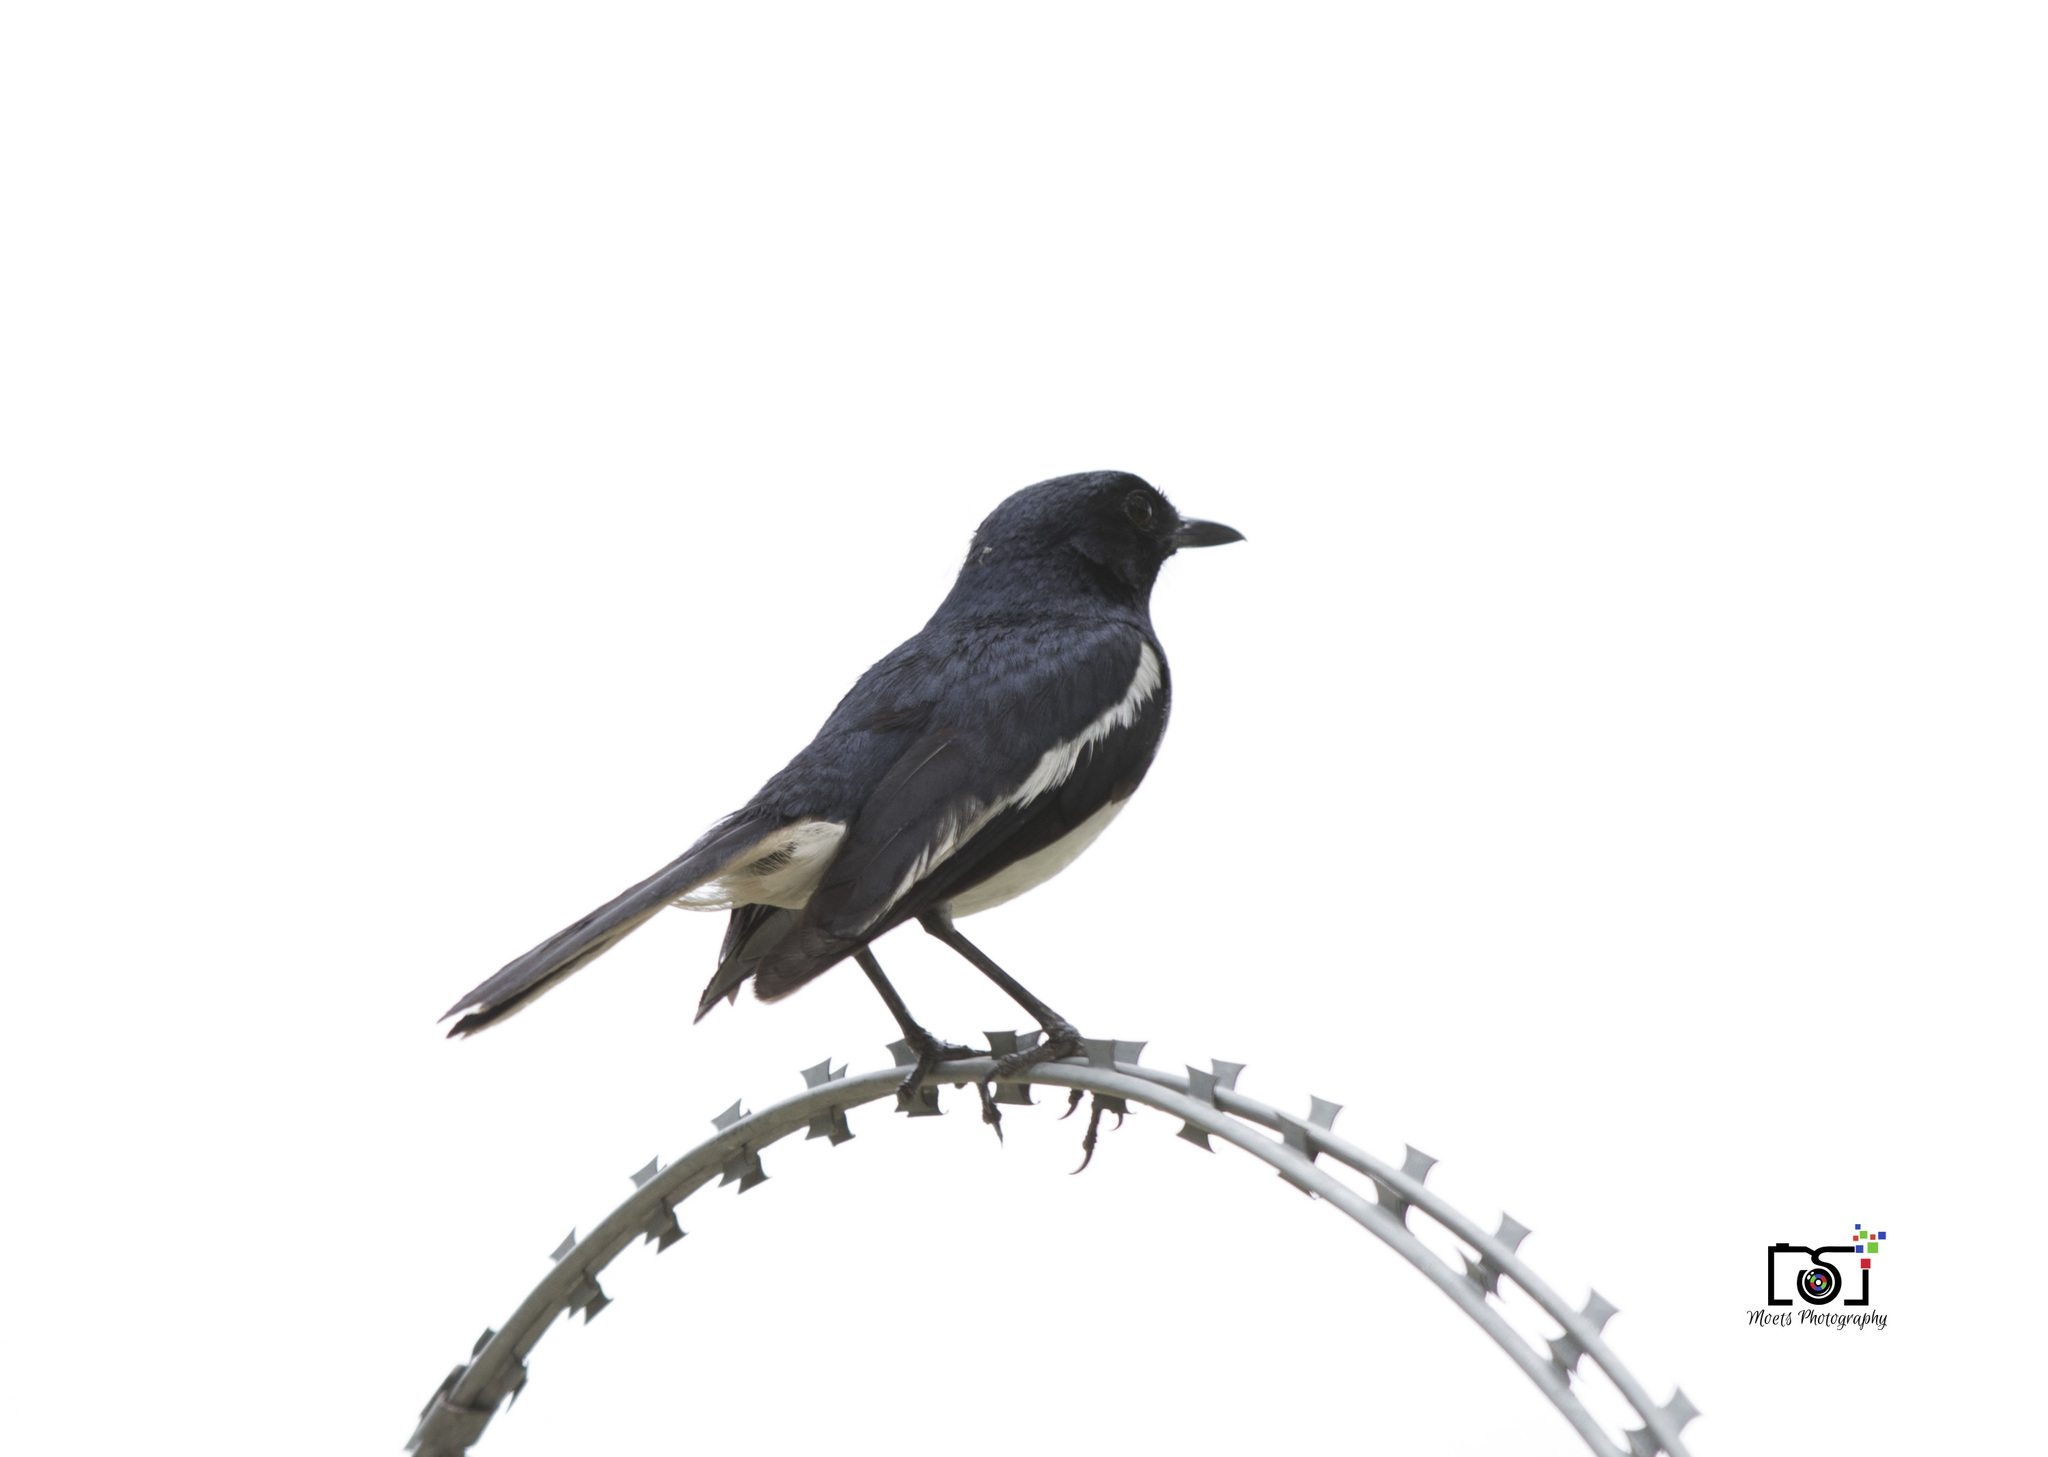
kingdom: Animalia
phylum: Chordata
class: Aves
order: Passeriformes
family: Muscicapidae
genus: Copsychus
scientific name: Copsychus saularis
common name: Oriental magpie-robin
